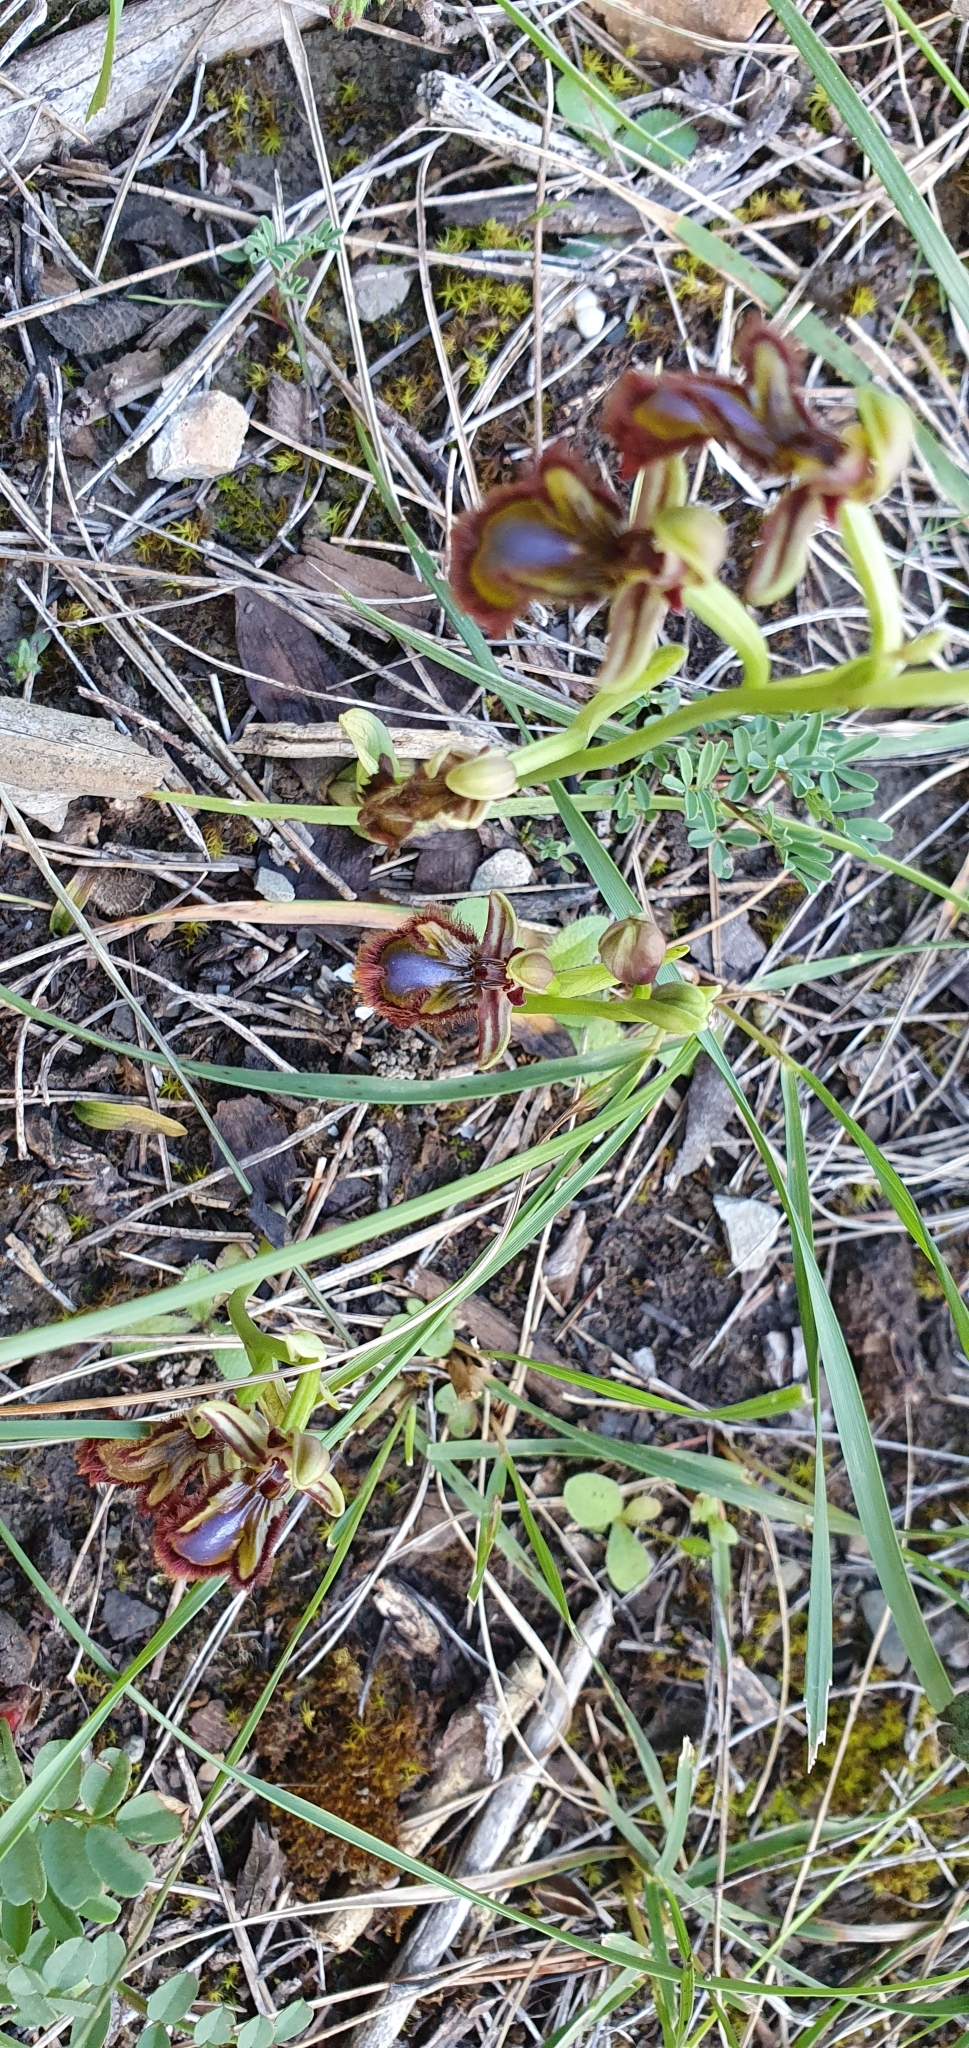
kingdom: Plantae
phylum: Tracheophyta
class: Liliopsida
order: Asparagales
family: Orchidaceae
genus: Ophrys
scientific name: Ophrys speculum
